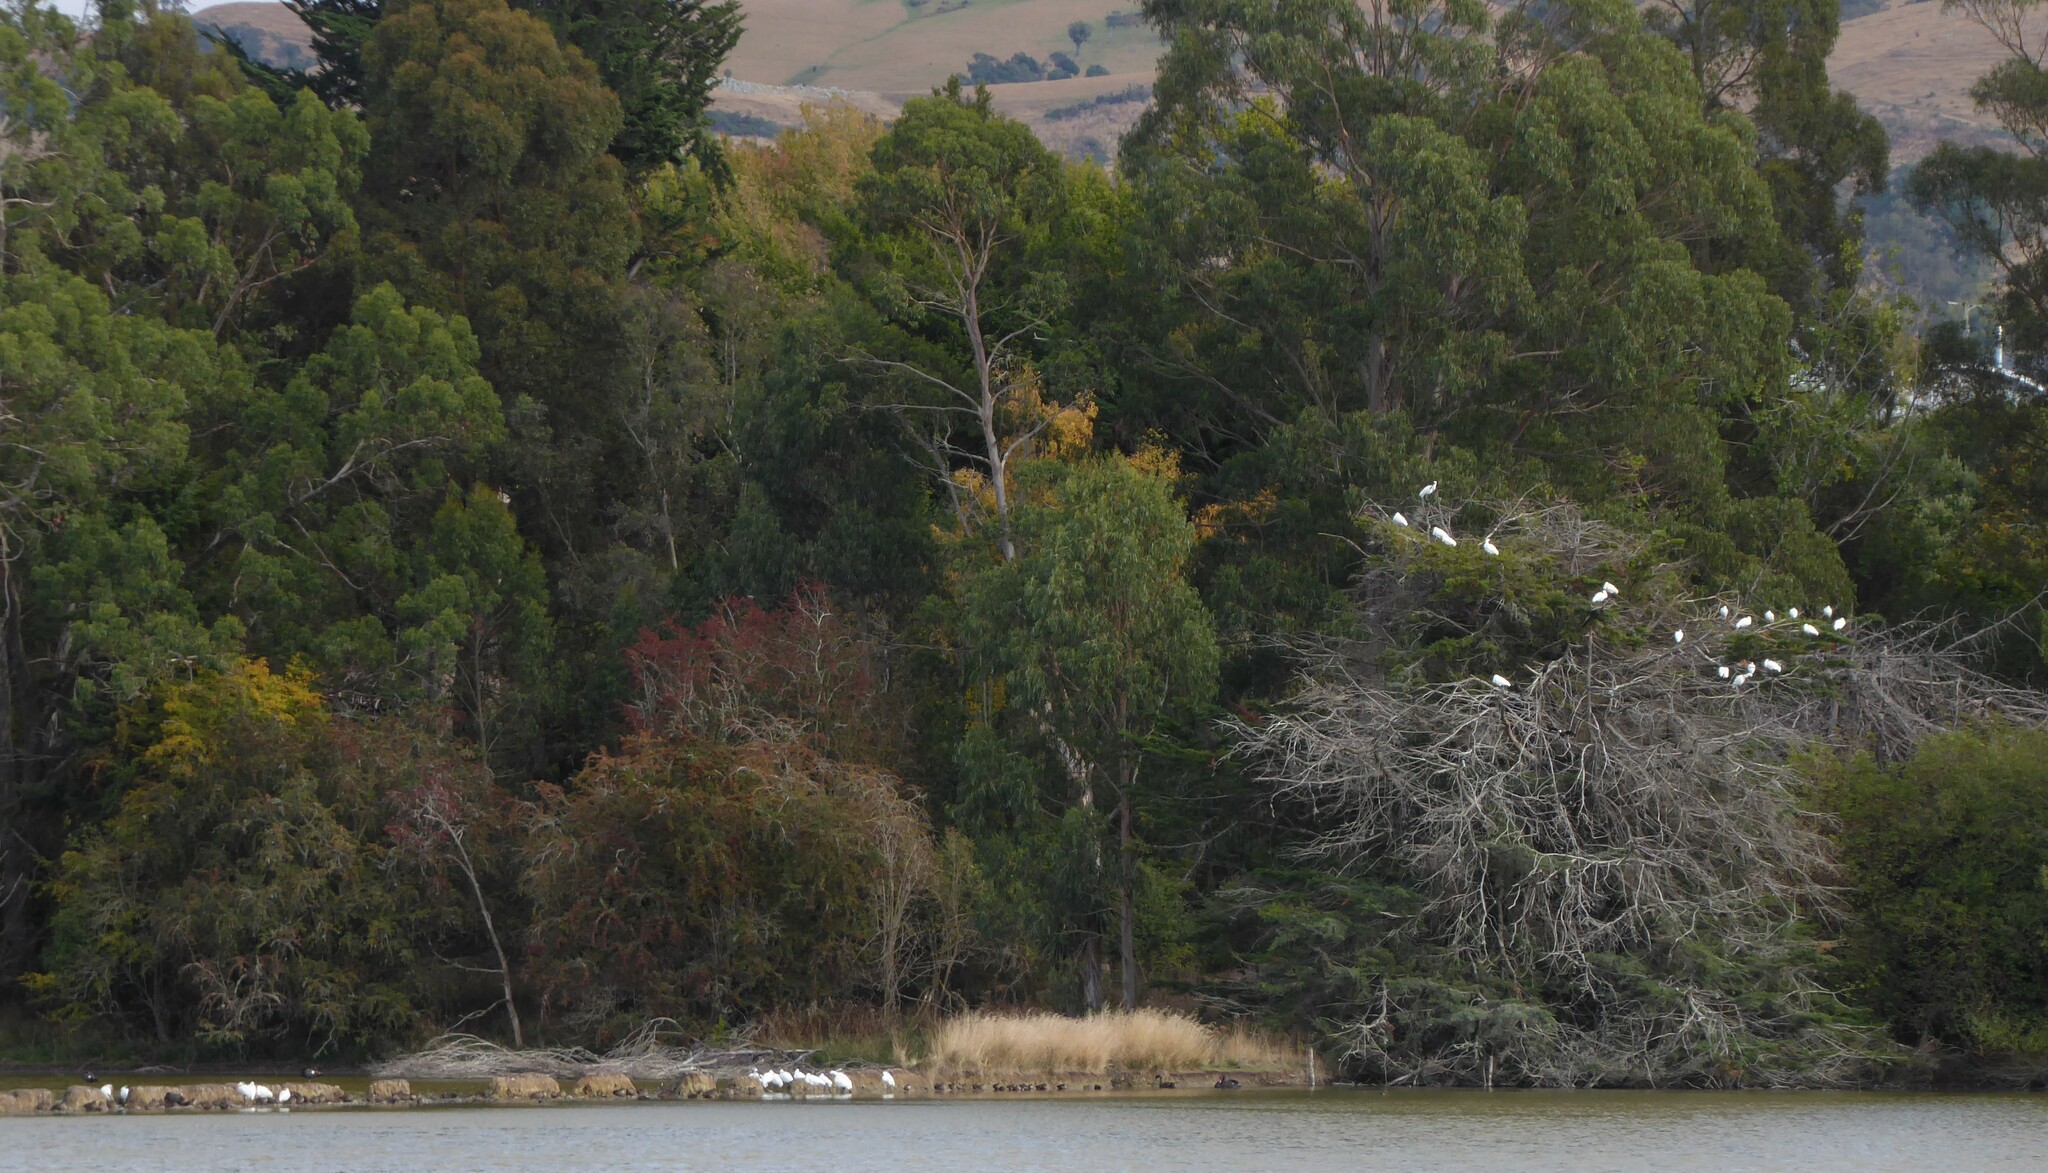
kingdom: Animalia
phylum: Chordata
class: Aves
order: Pelecaniformes
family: Threskiornithidae
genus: Platalea
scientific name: Platalea regia
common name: Royal spoonbill
